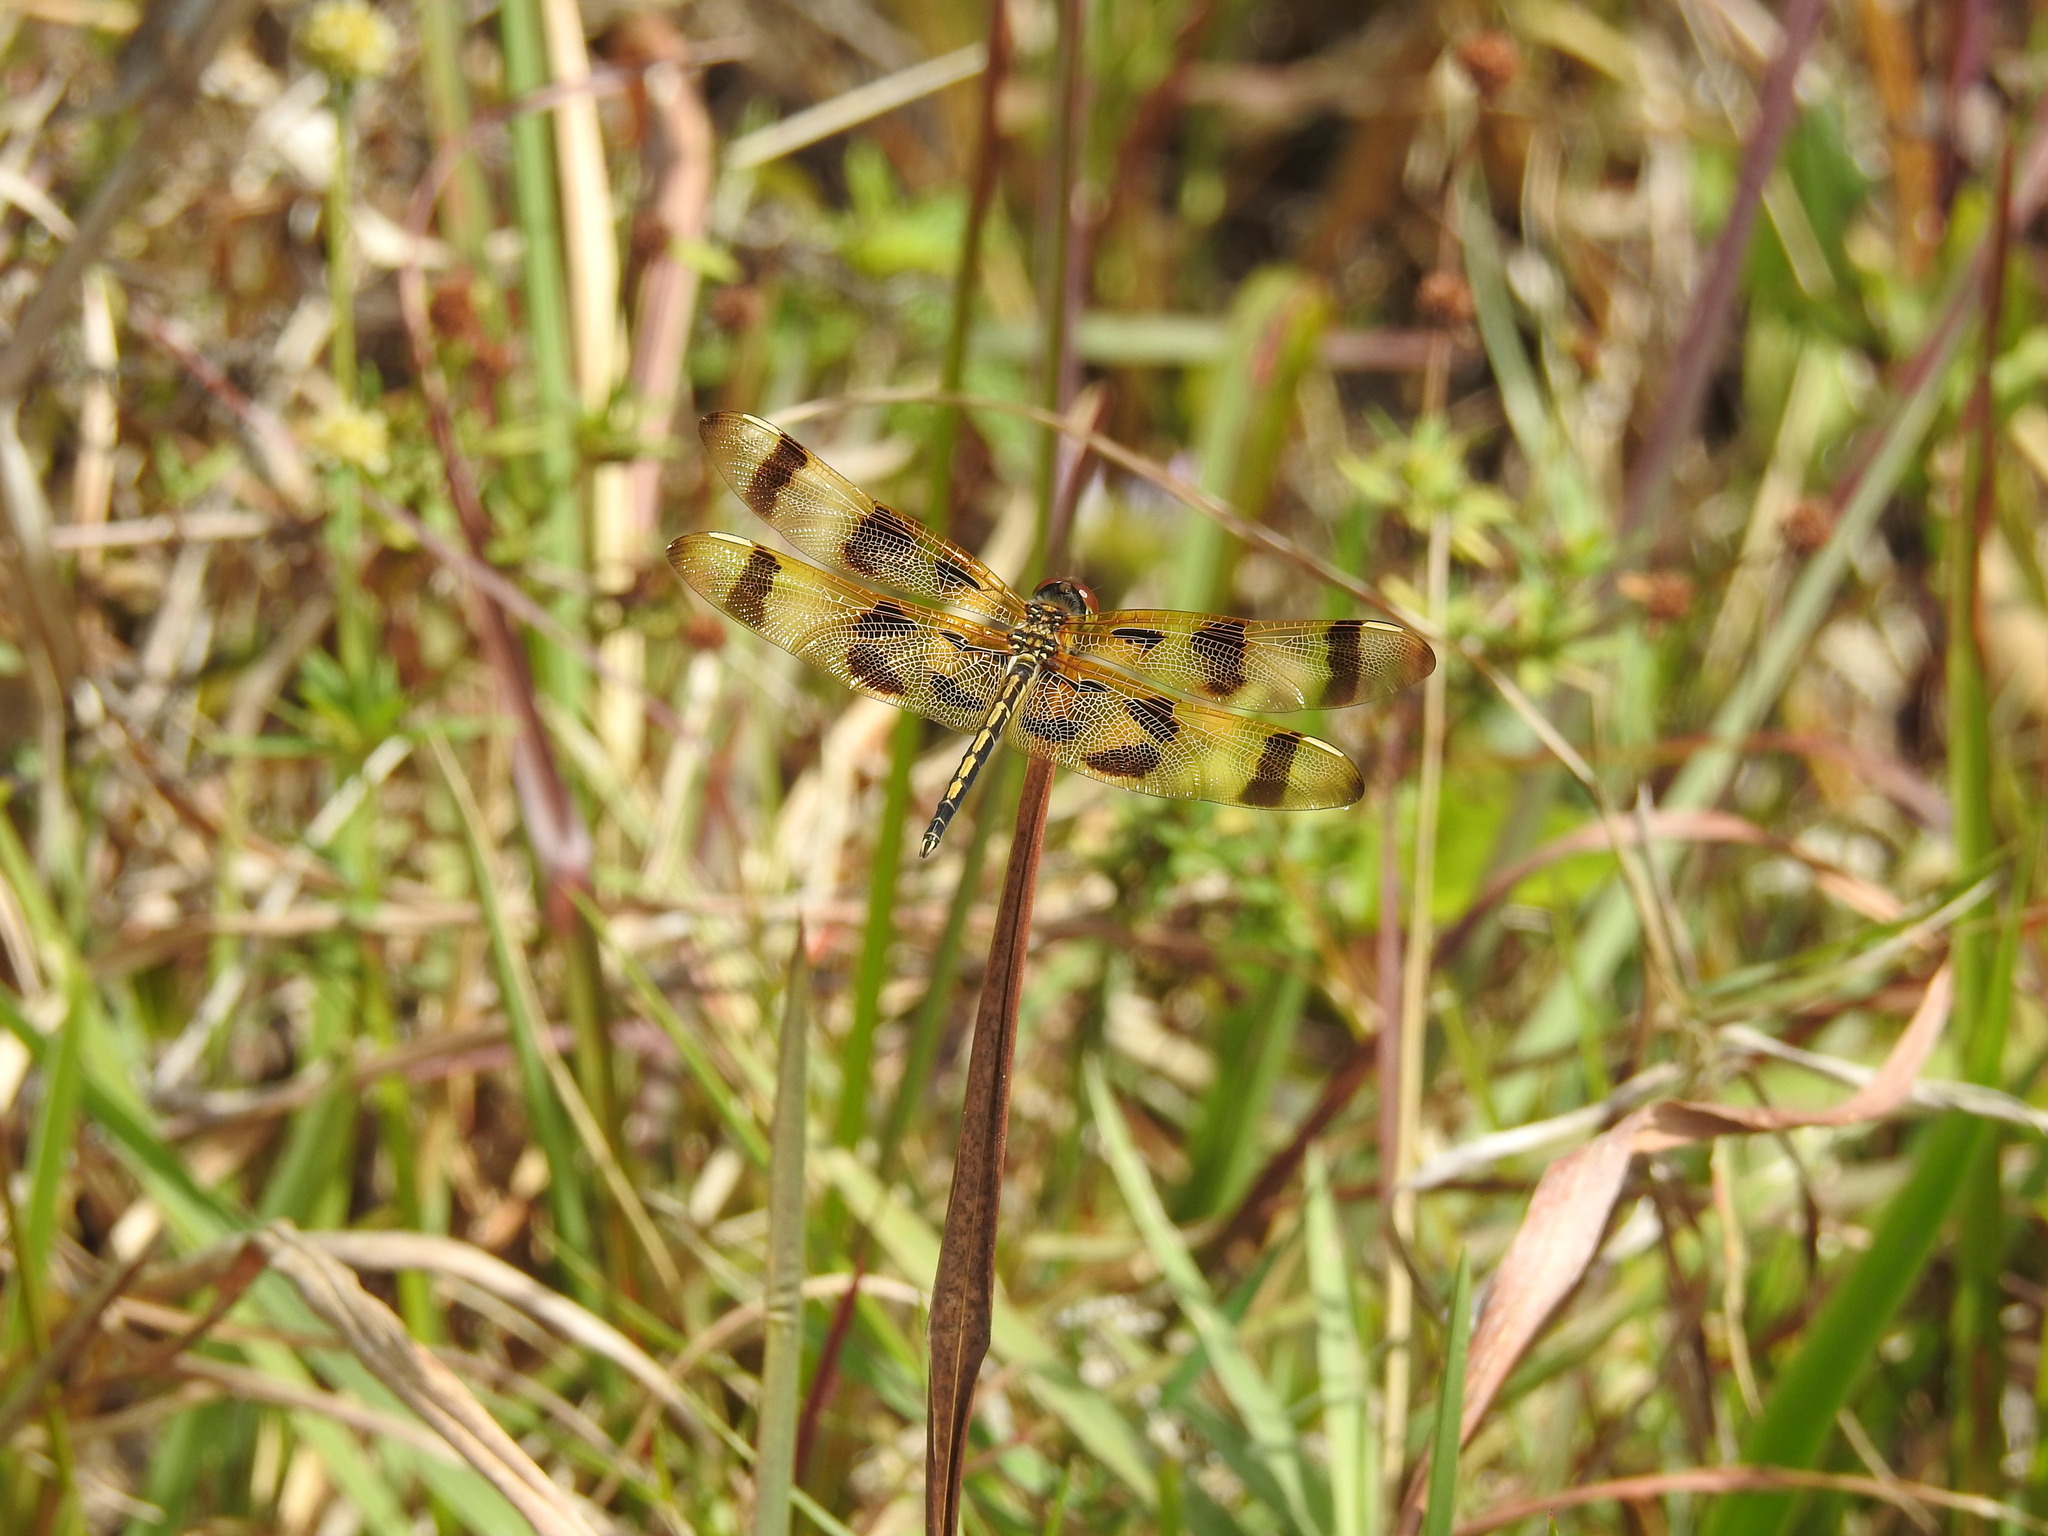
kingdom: Animalia
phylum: Arthropoda
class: Insecta
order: Odonata
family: Libellulidae
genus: Celithemis
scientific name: Celithemis eponina
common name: Halloween pennant
